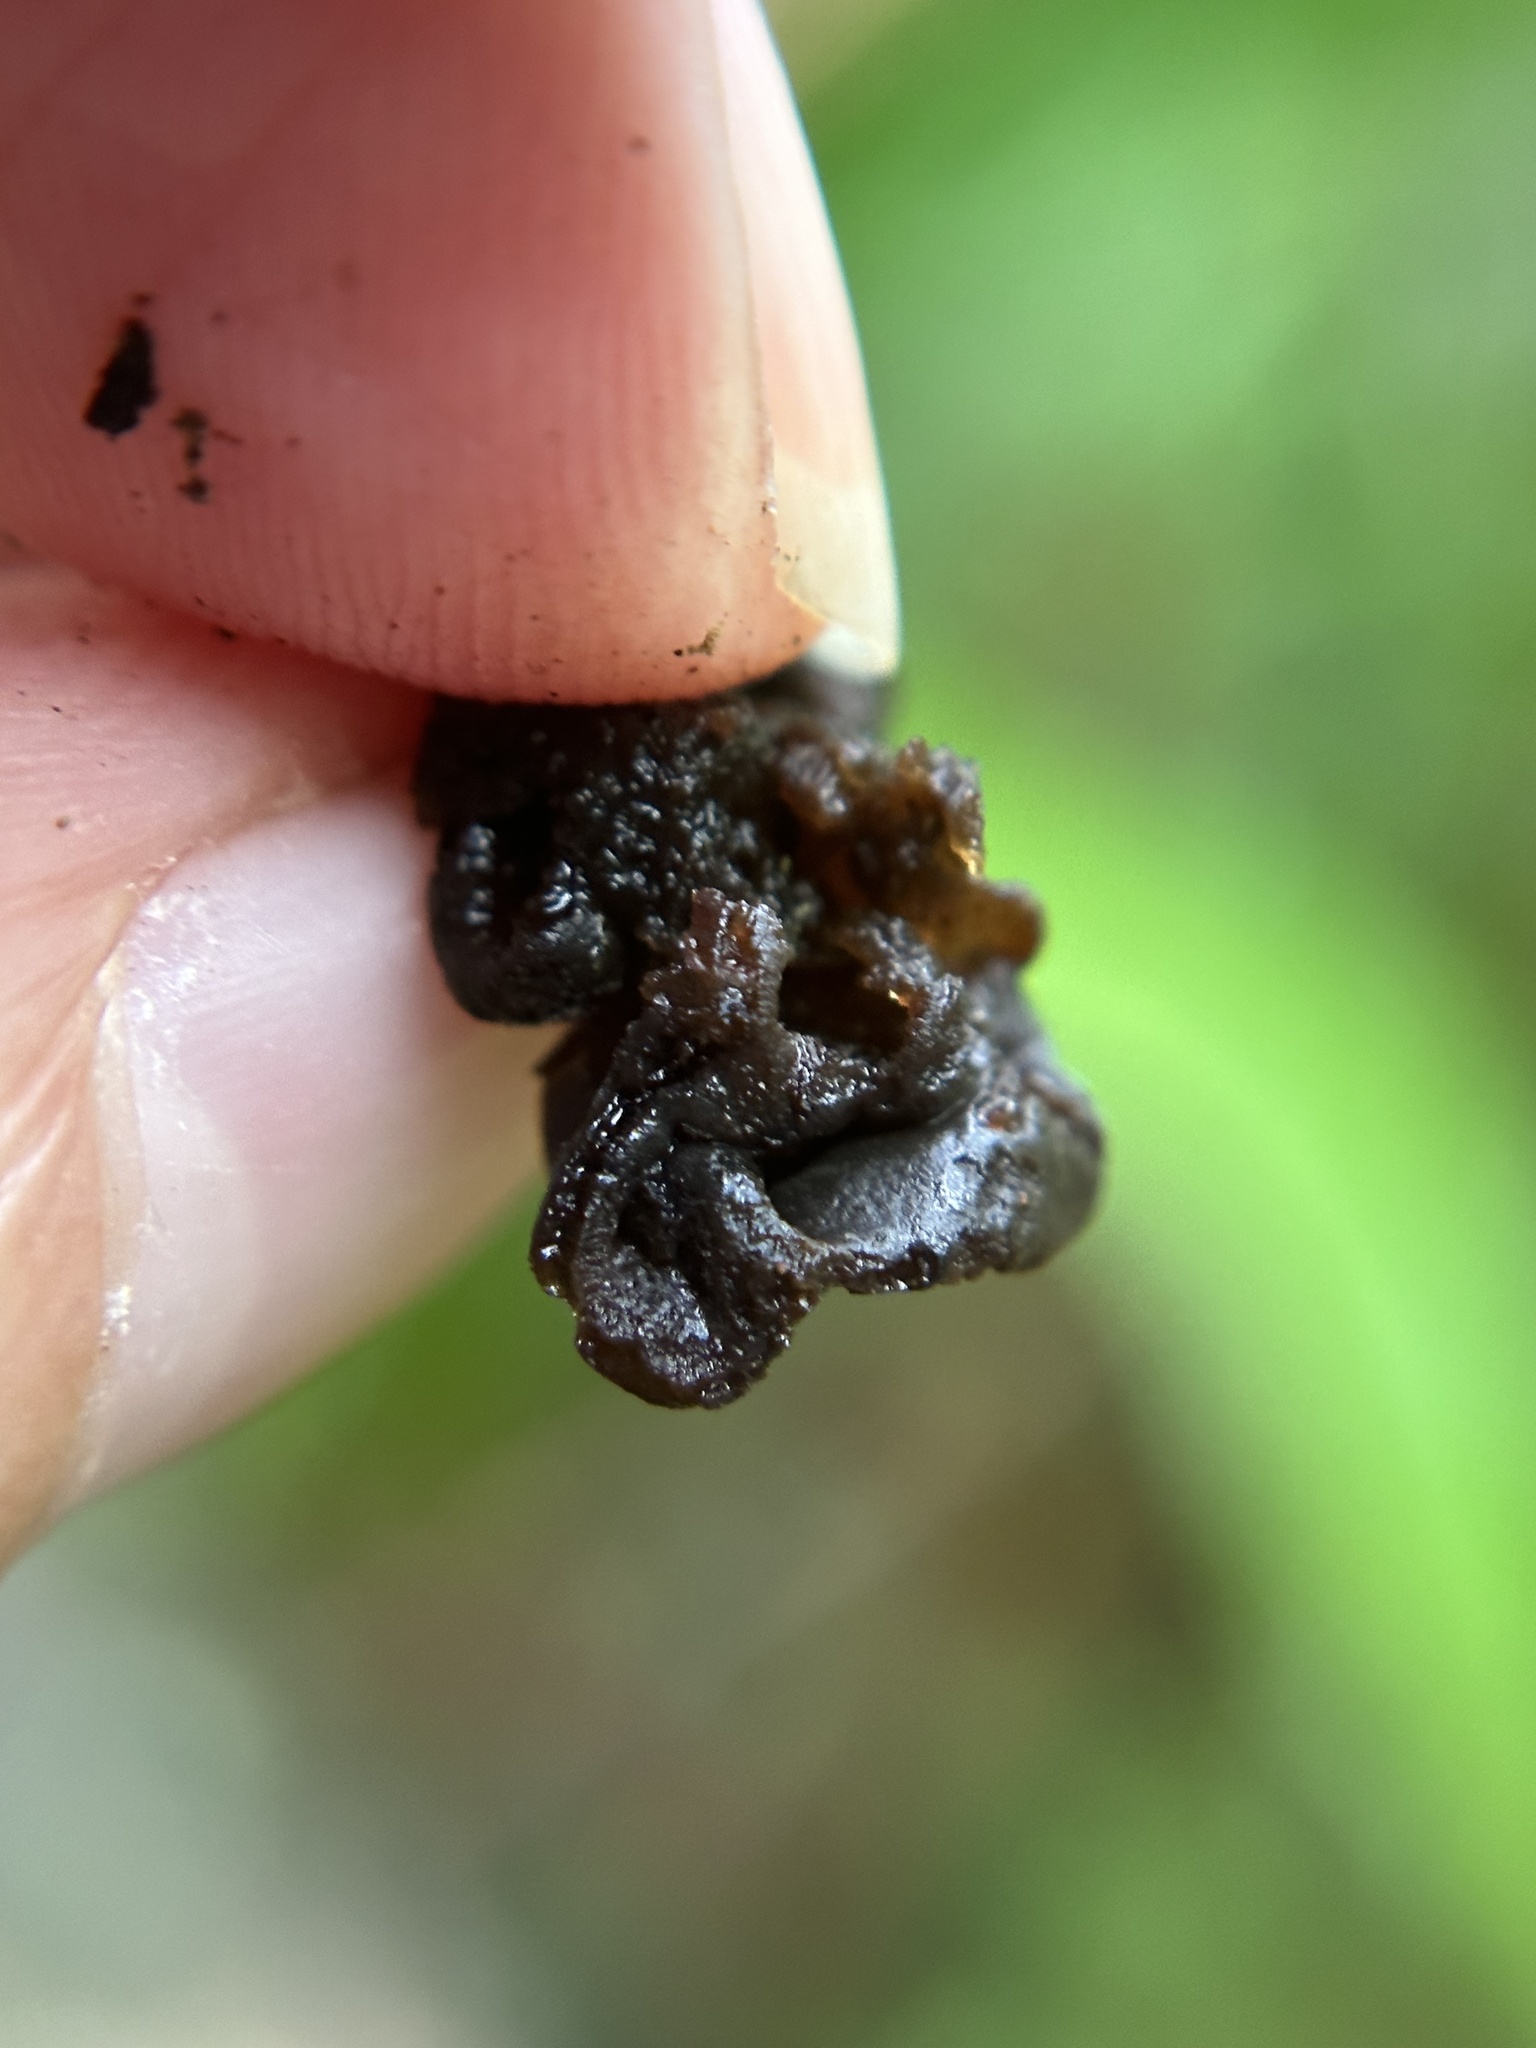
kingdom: Fungi
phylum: Basidiomycota
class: Tremellomycetes
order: Tremellales
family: Tremellaceae
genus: Tremella
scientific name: Tremella boraborensis
